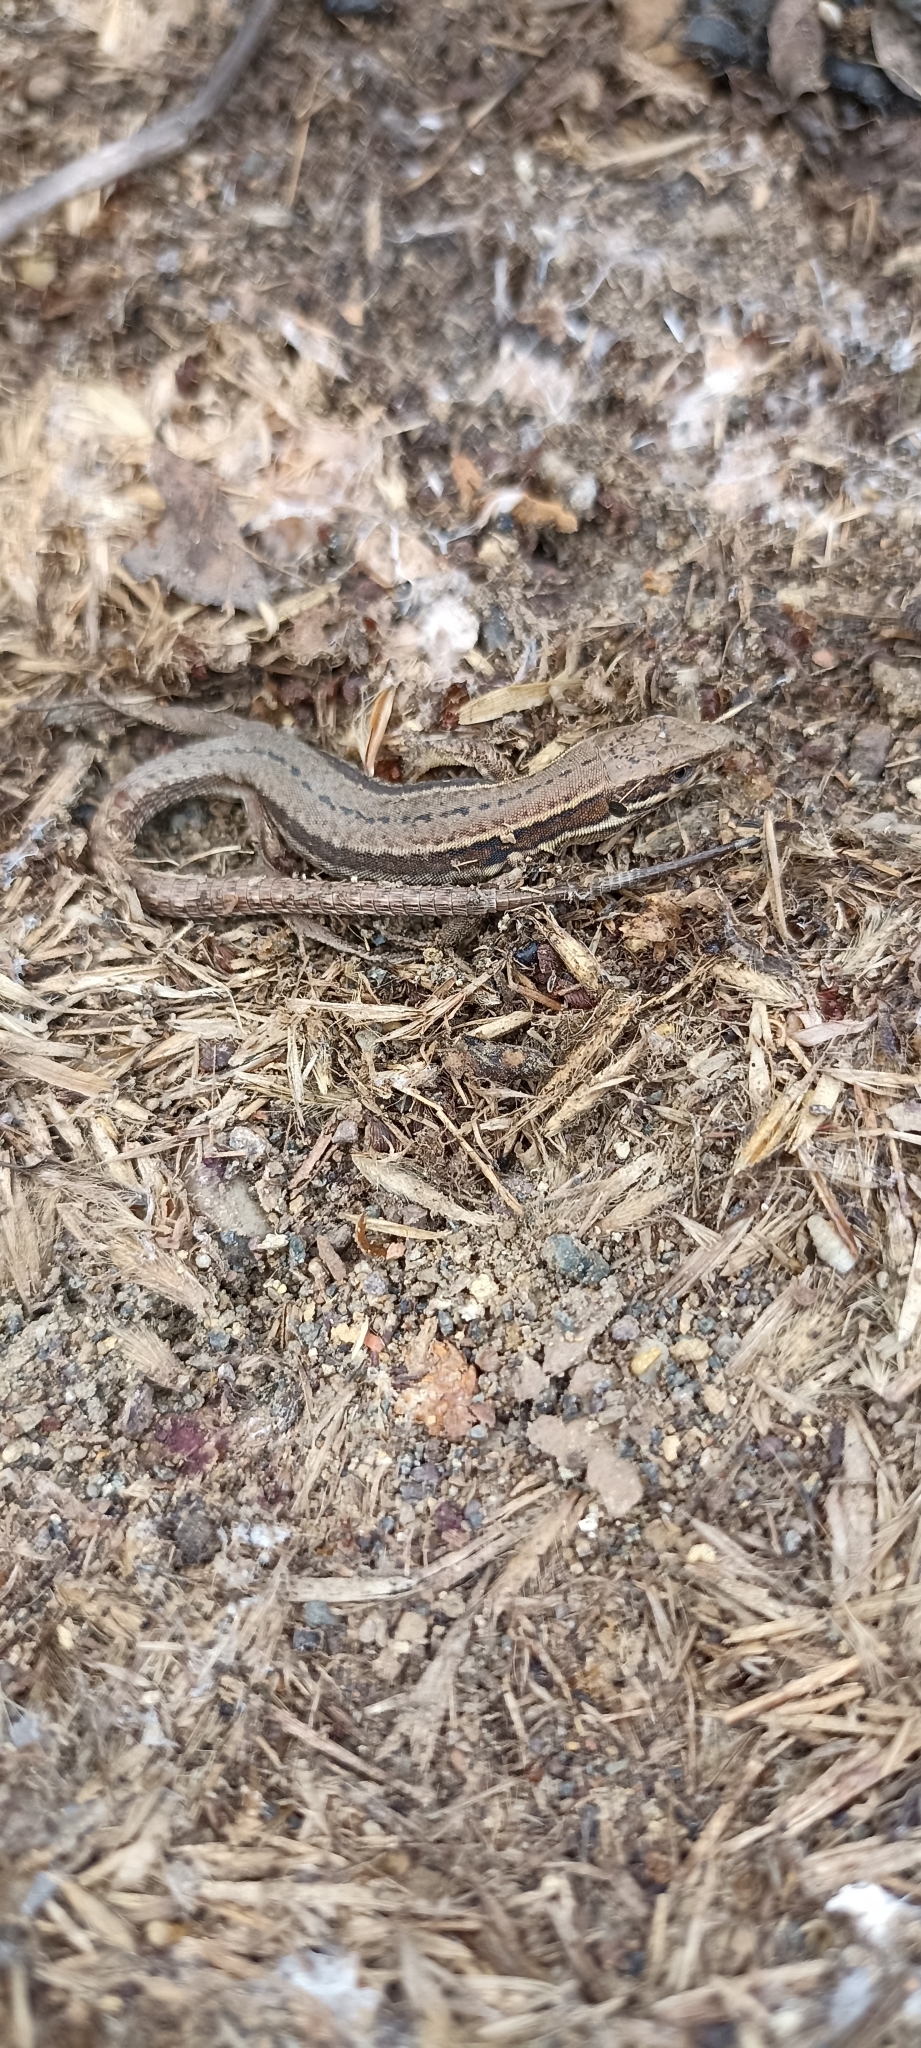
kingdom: Animalia
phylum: Chordata
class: Squamata
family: Lacertidae
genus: Podarcis
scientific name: Podarcis muralis
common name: Common wall lizard
